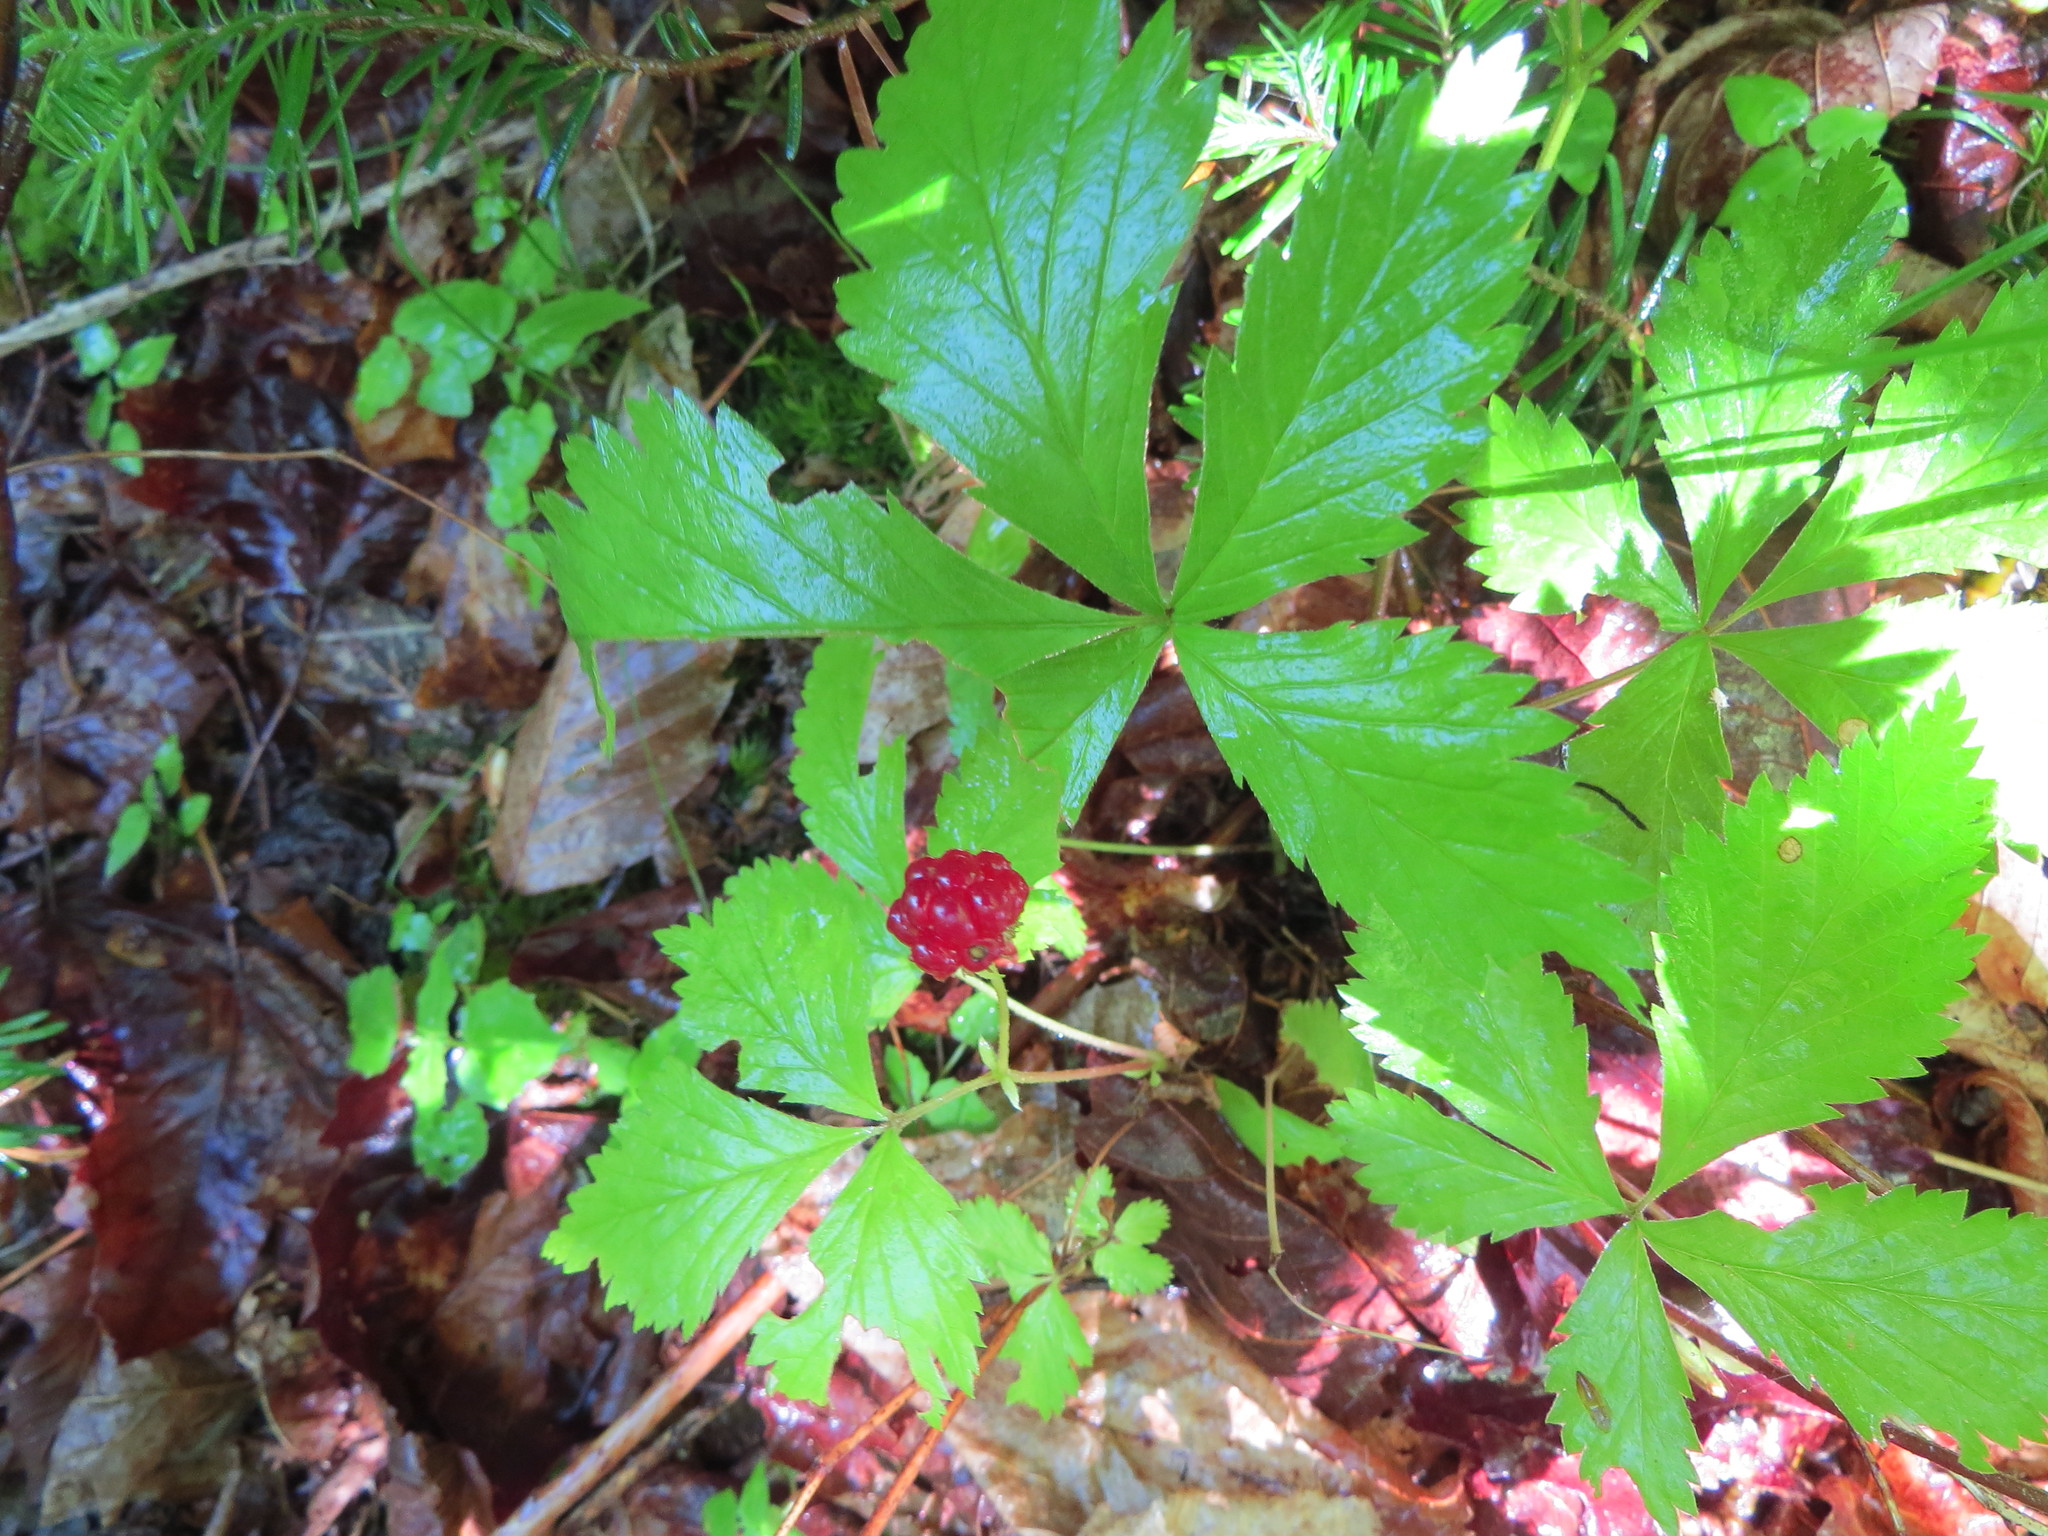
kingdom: Plantae
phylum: Tracheophyta
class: Magnoliopsida
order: Rosales
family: Rosaceae
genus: Rubus
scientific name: Rubus pubescens
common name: Dwarf raspberry
